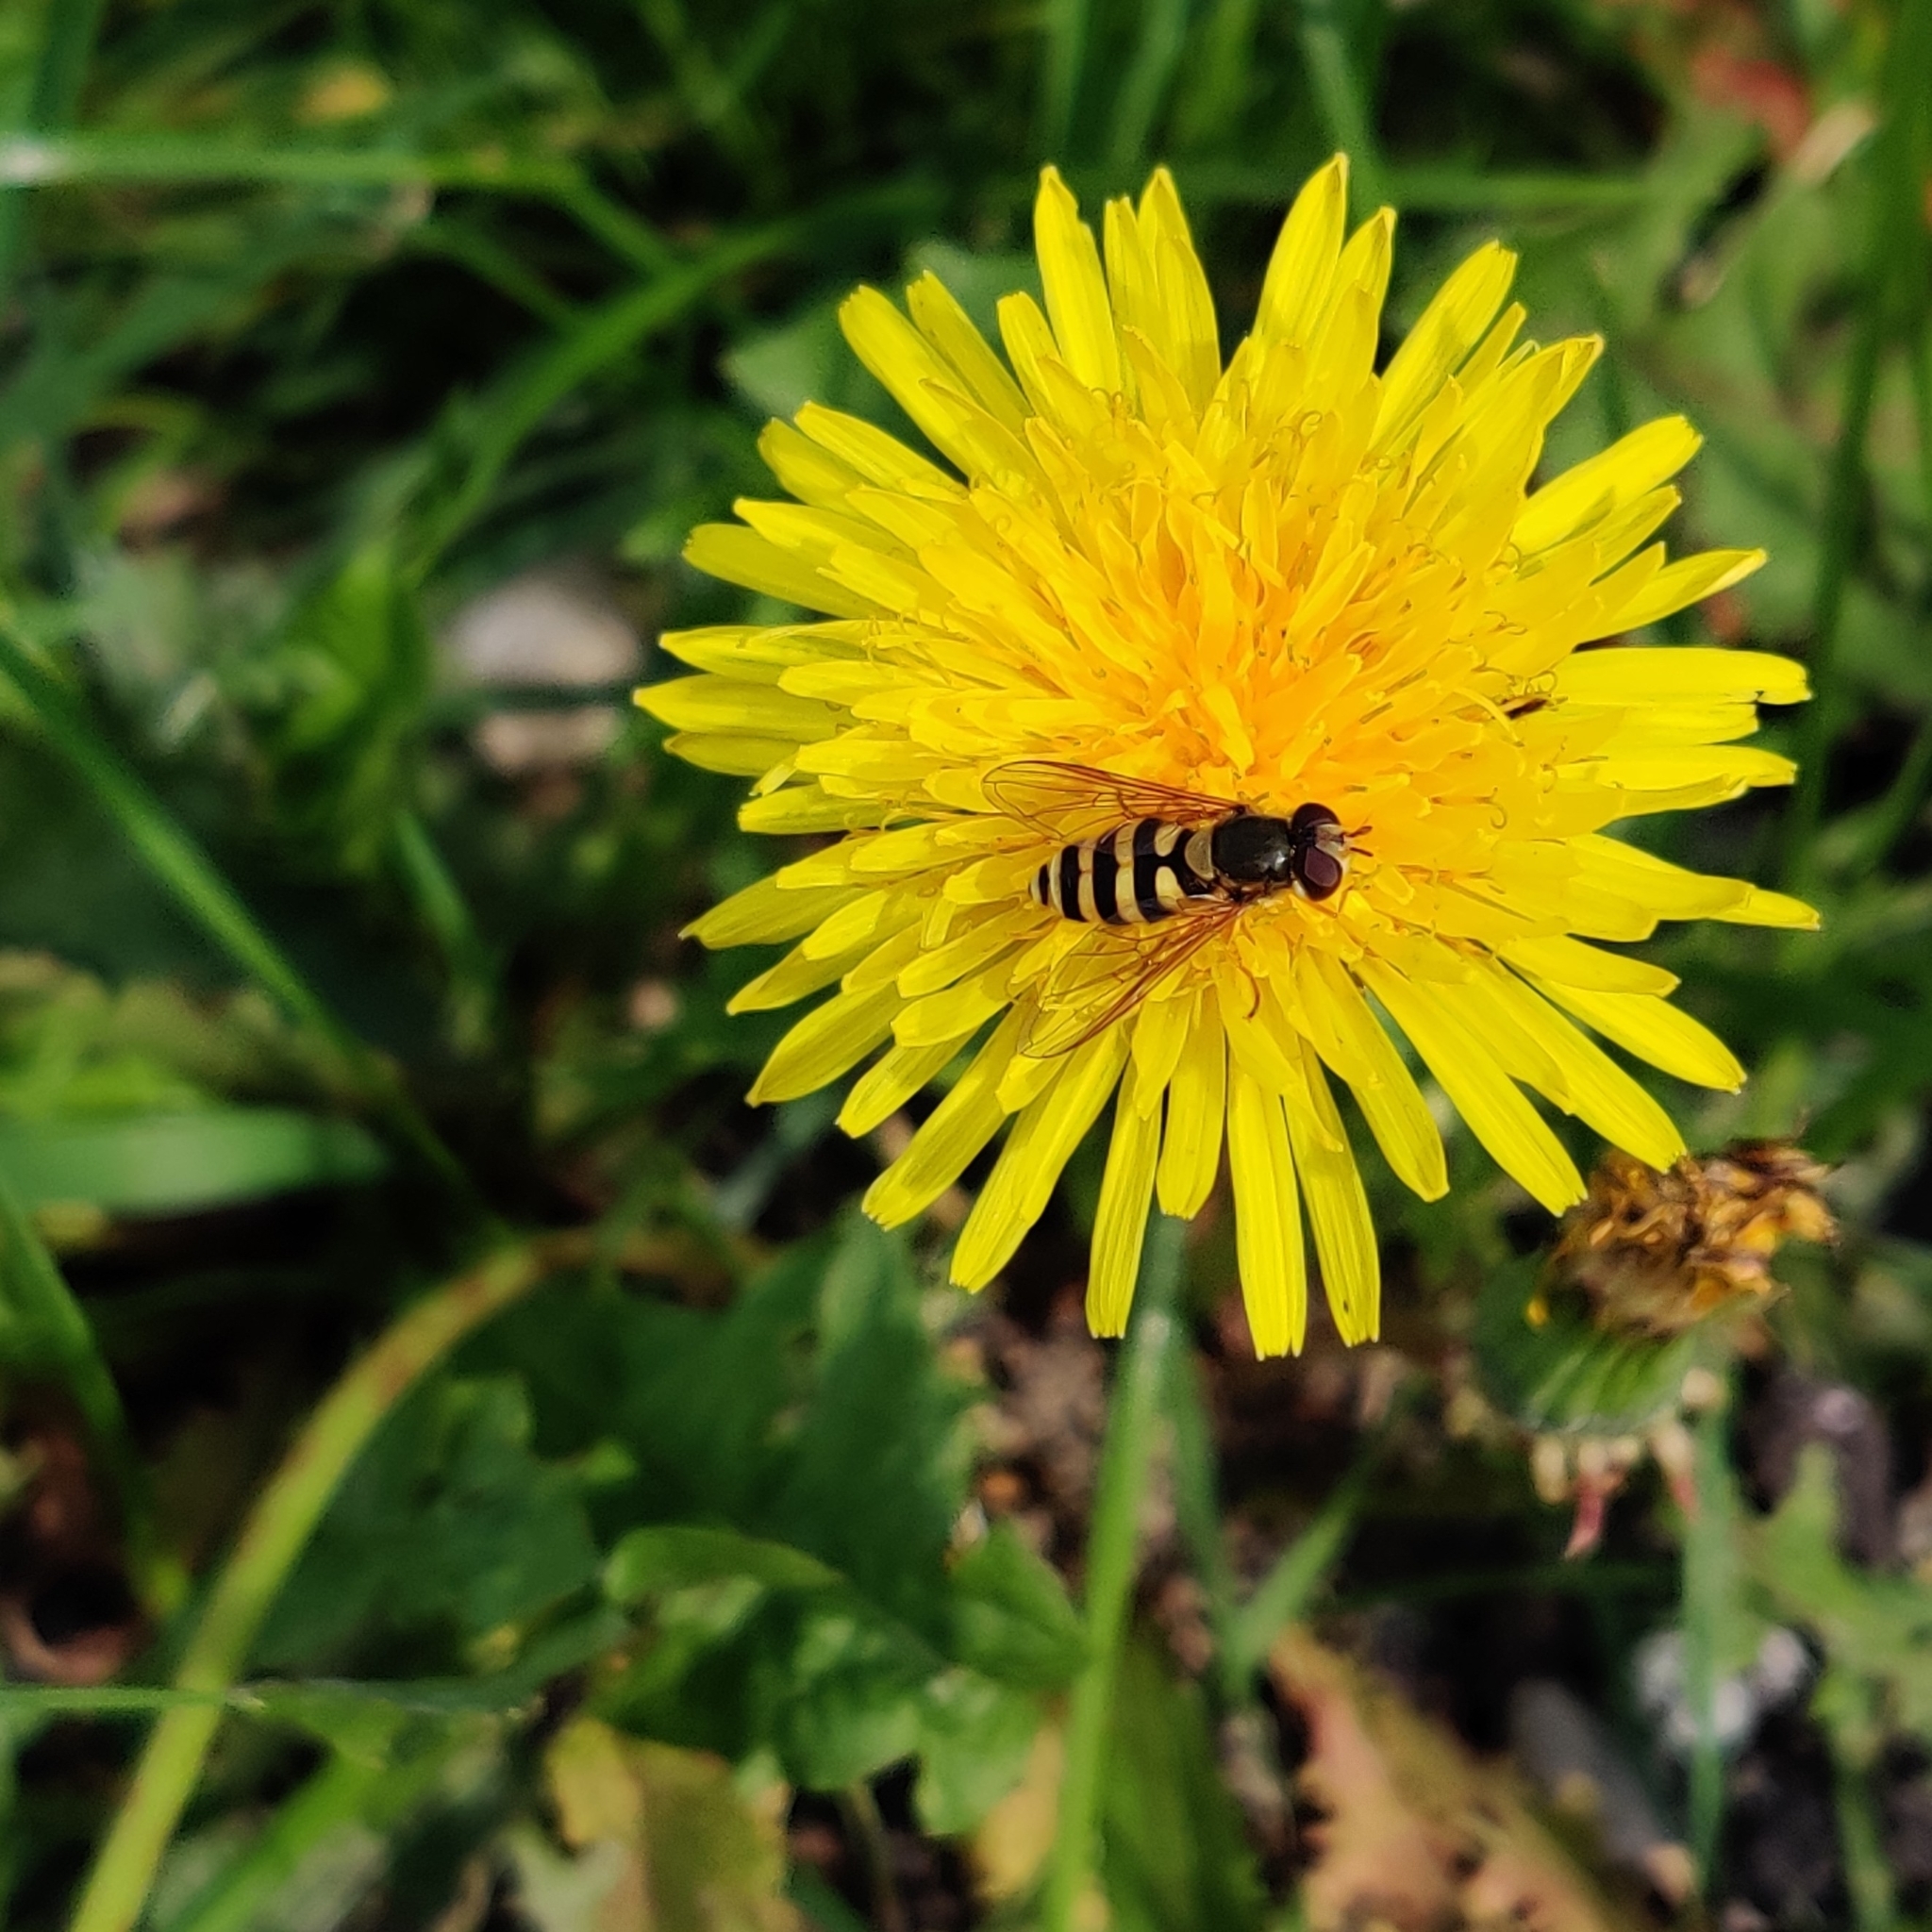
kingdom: Animalia
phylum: Arthropoda
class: Insecta
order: Diptera
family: Syrphidae
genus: Syrphus
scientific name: Syrphus
